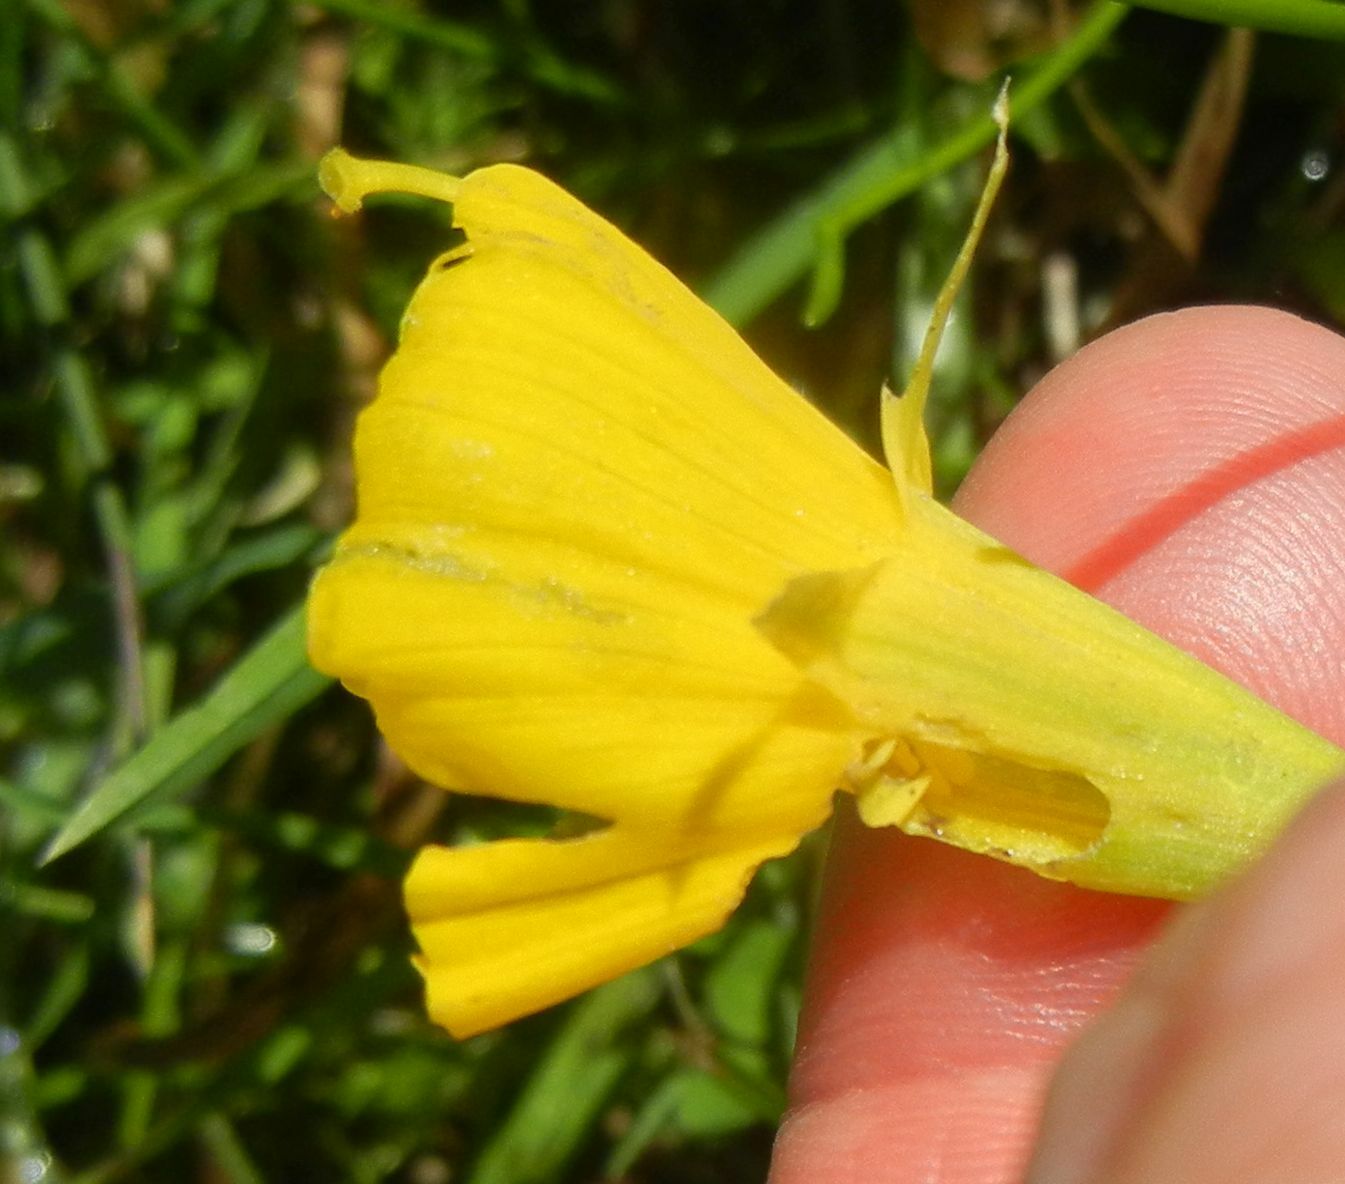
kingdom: Plantae
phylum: Tracheophyta
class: Liliopsida
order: Asparagales
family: Amaryllidaceae
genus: Narcissus
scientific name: Narcissus bulbocodium
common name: Hoop-petticoat daffodil
